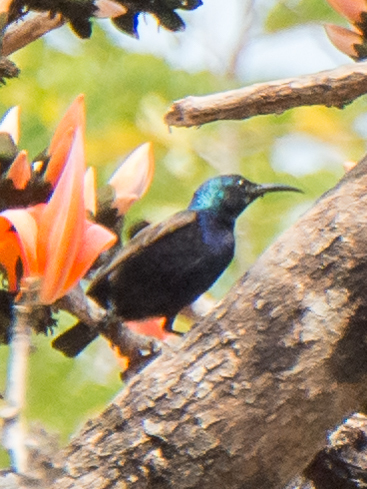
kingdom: Animalia
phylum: Chordata
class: Aves
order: Passeriformes
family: Nectariniidae
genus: Cinnyris
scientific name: Cinnyris asiaticus
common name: Purple sunbird
